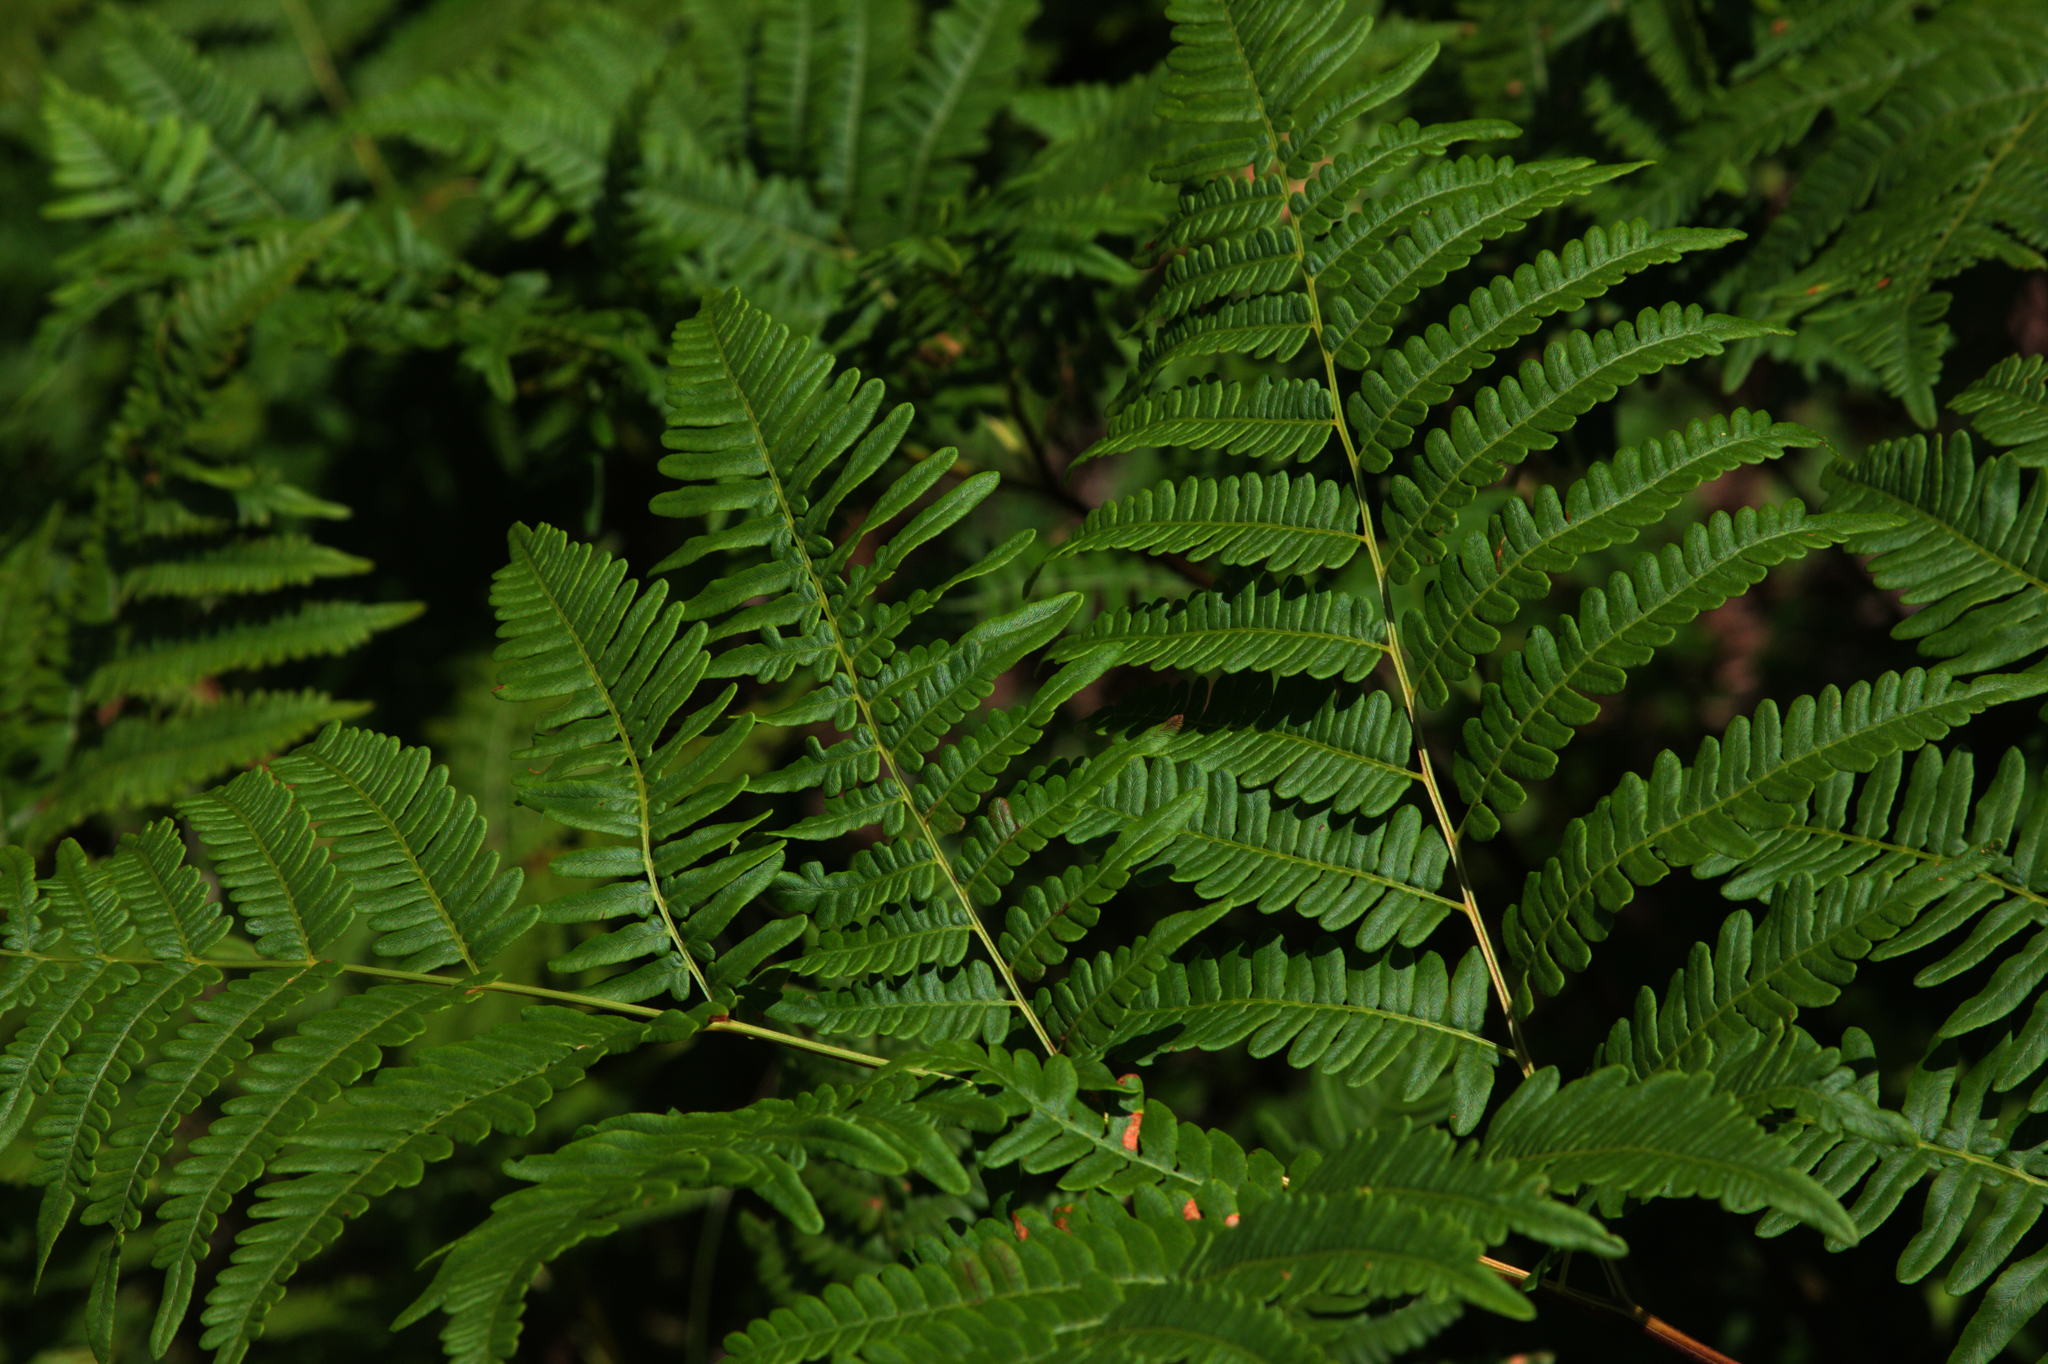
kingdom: Plantae
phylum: Tracheophyta
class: Polypodiopsida
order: Polypodiales
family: Dennstaedtiaceae
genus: Pteridium
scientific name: Pteridium aquilinum
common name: Bracken
